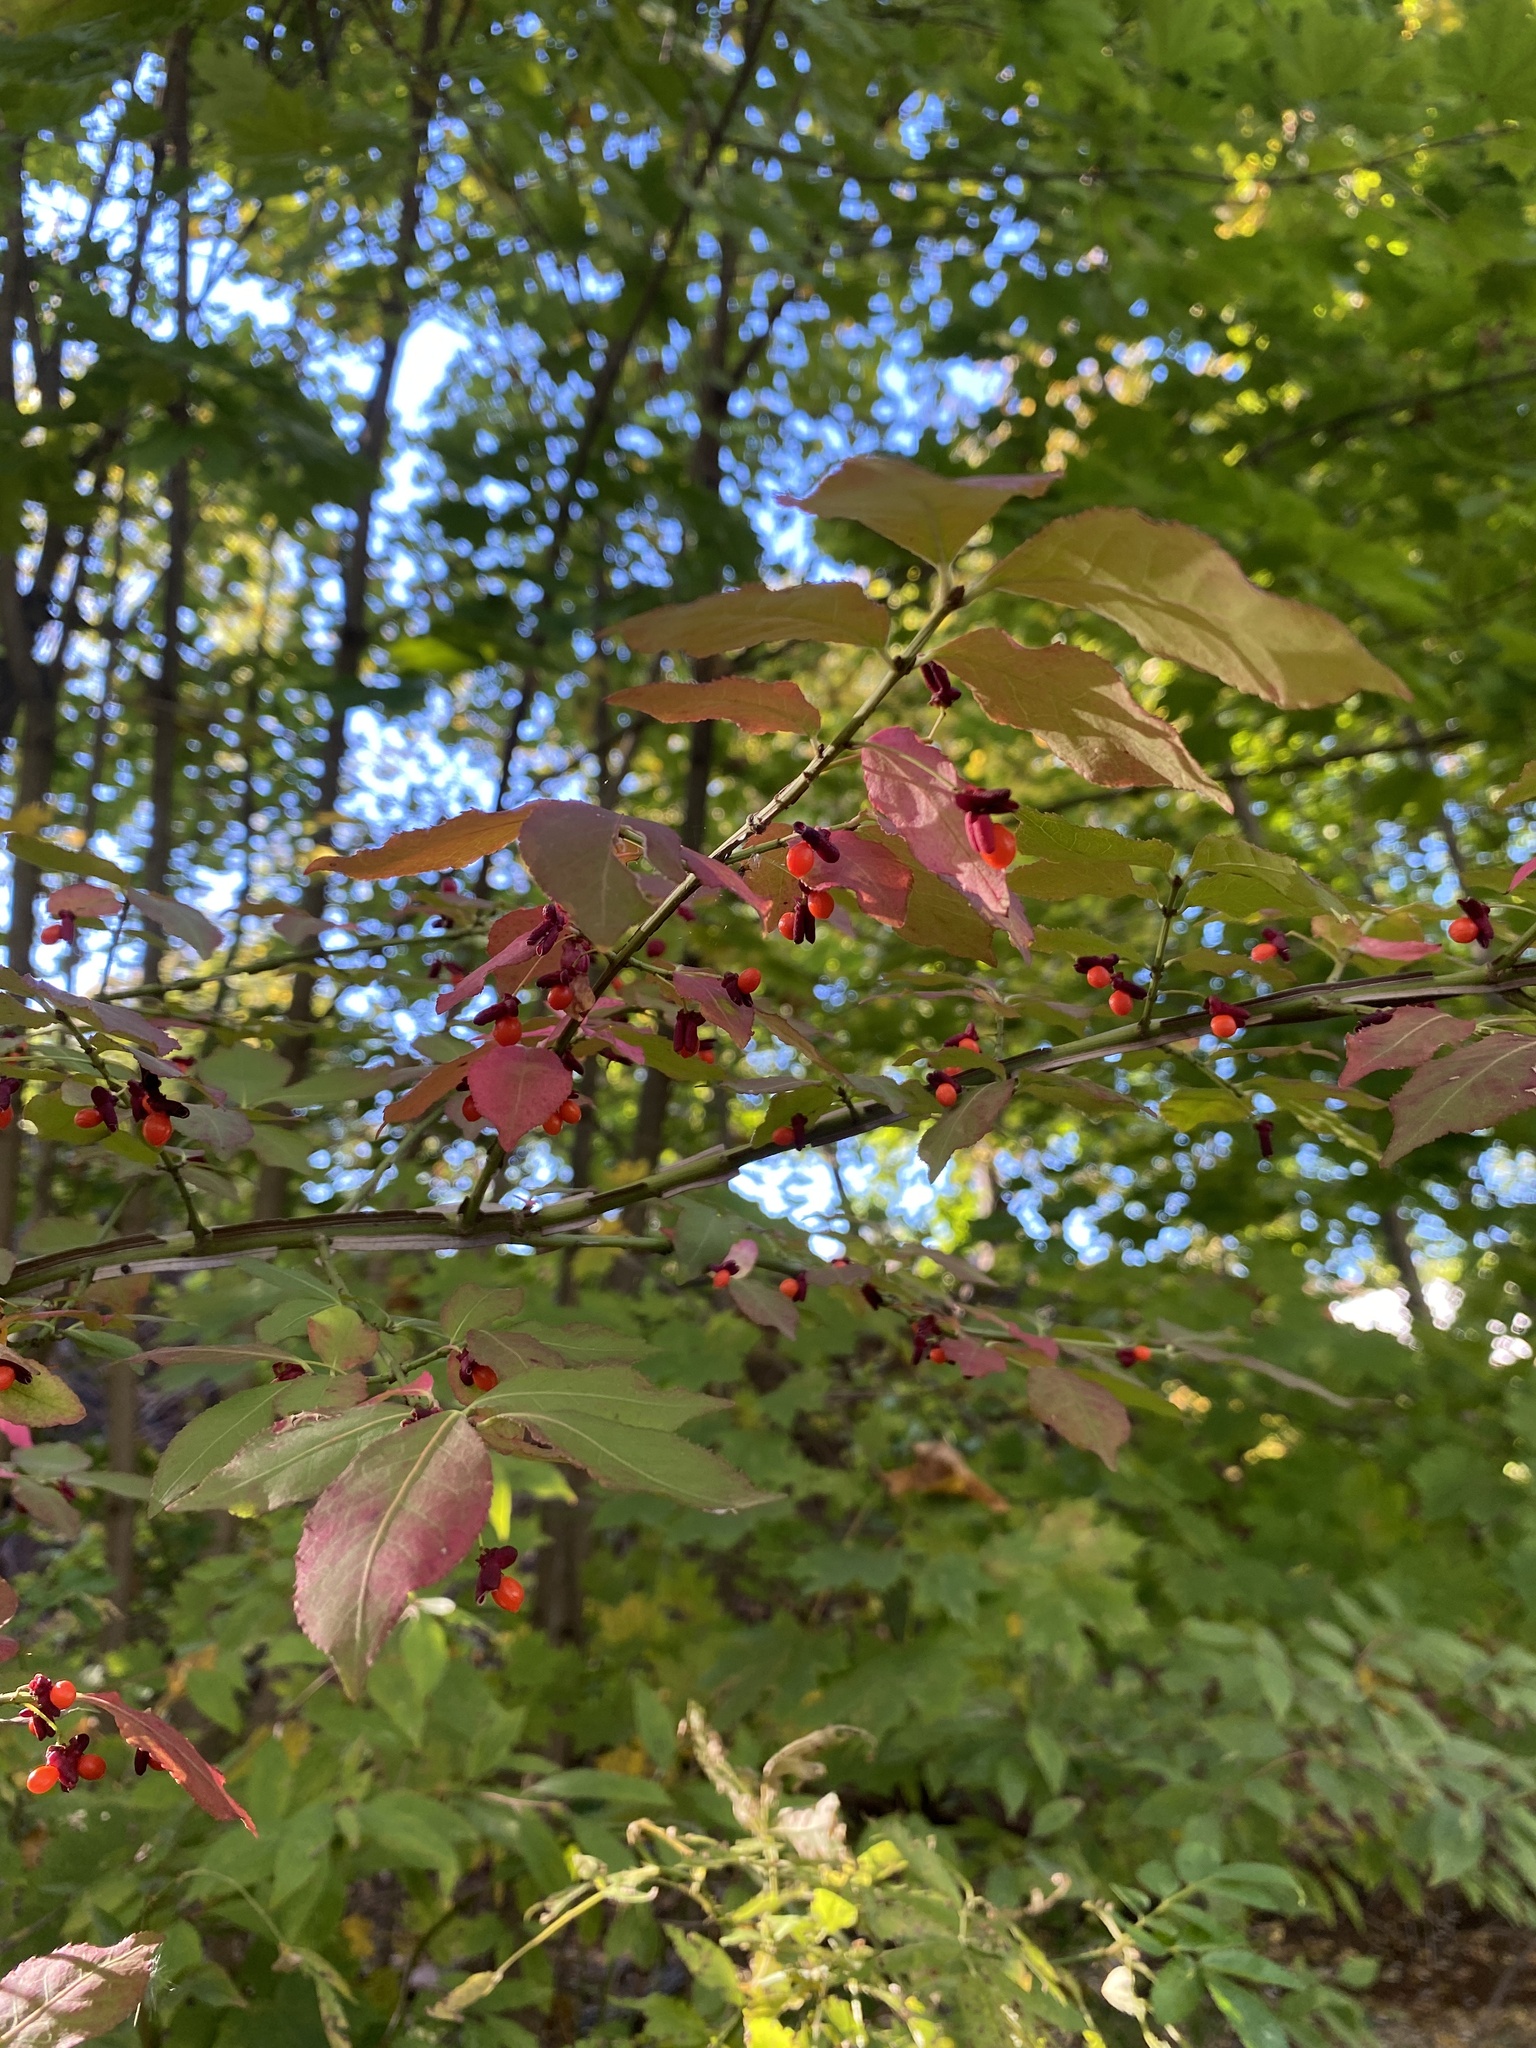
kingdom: Plantae
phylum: Tracheophyta
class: Magnoliopsida
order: Celastrales
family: Celastraceae
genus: Euonymus
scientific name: Euonymus alatus
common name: Winged euonymus
